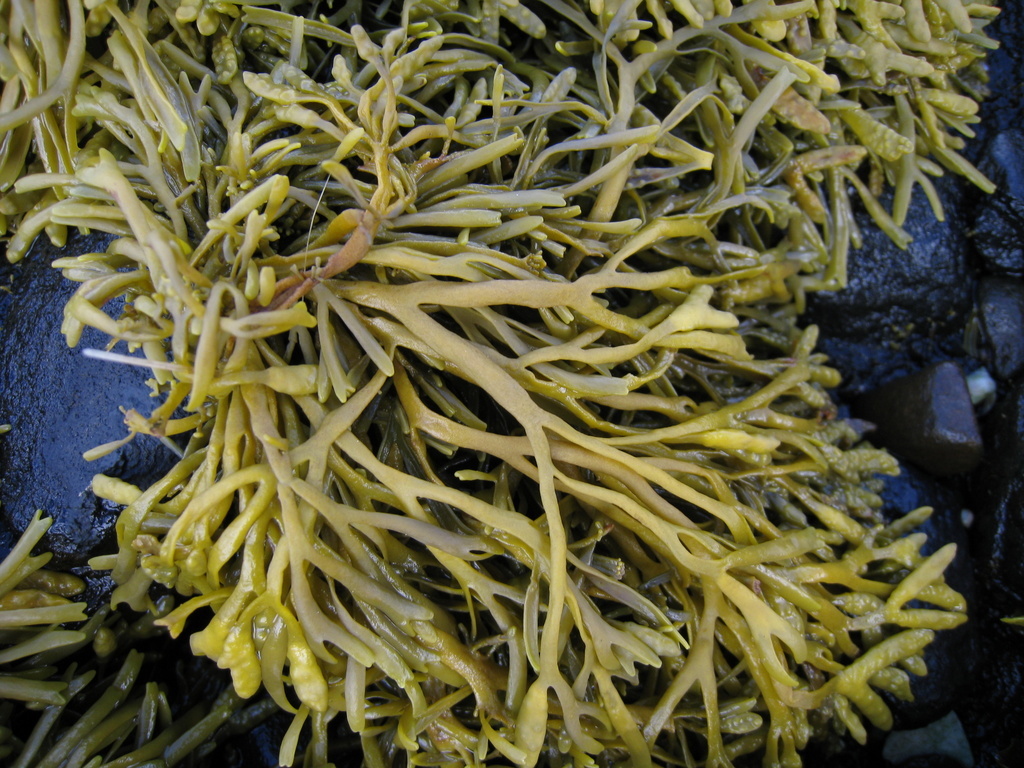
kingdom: Chromista
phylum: Ochrophyta
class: Phaeophyceae
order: Fucales
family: Fucaceae
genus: Pelvetia
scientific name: Pelvetia canaliculata
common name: Channelled wrack
